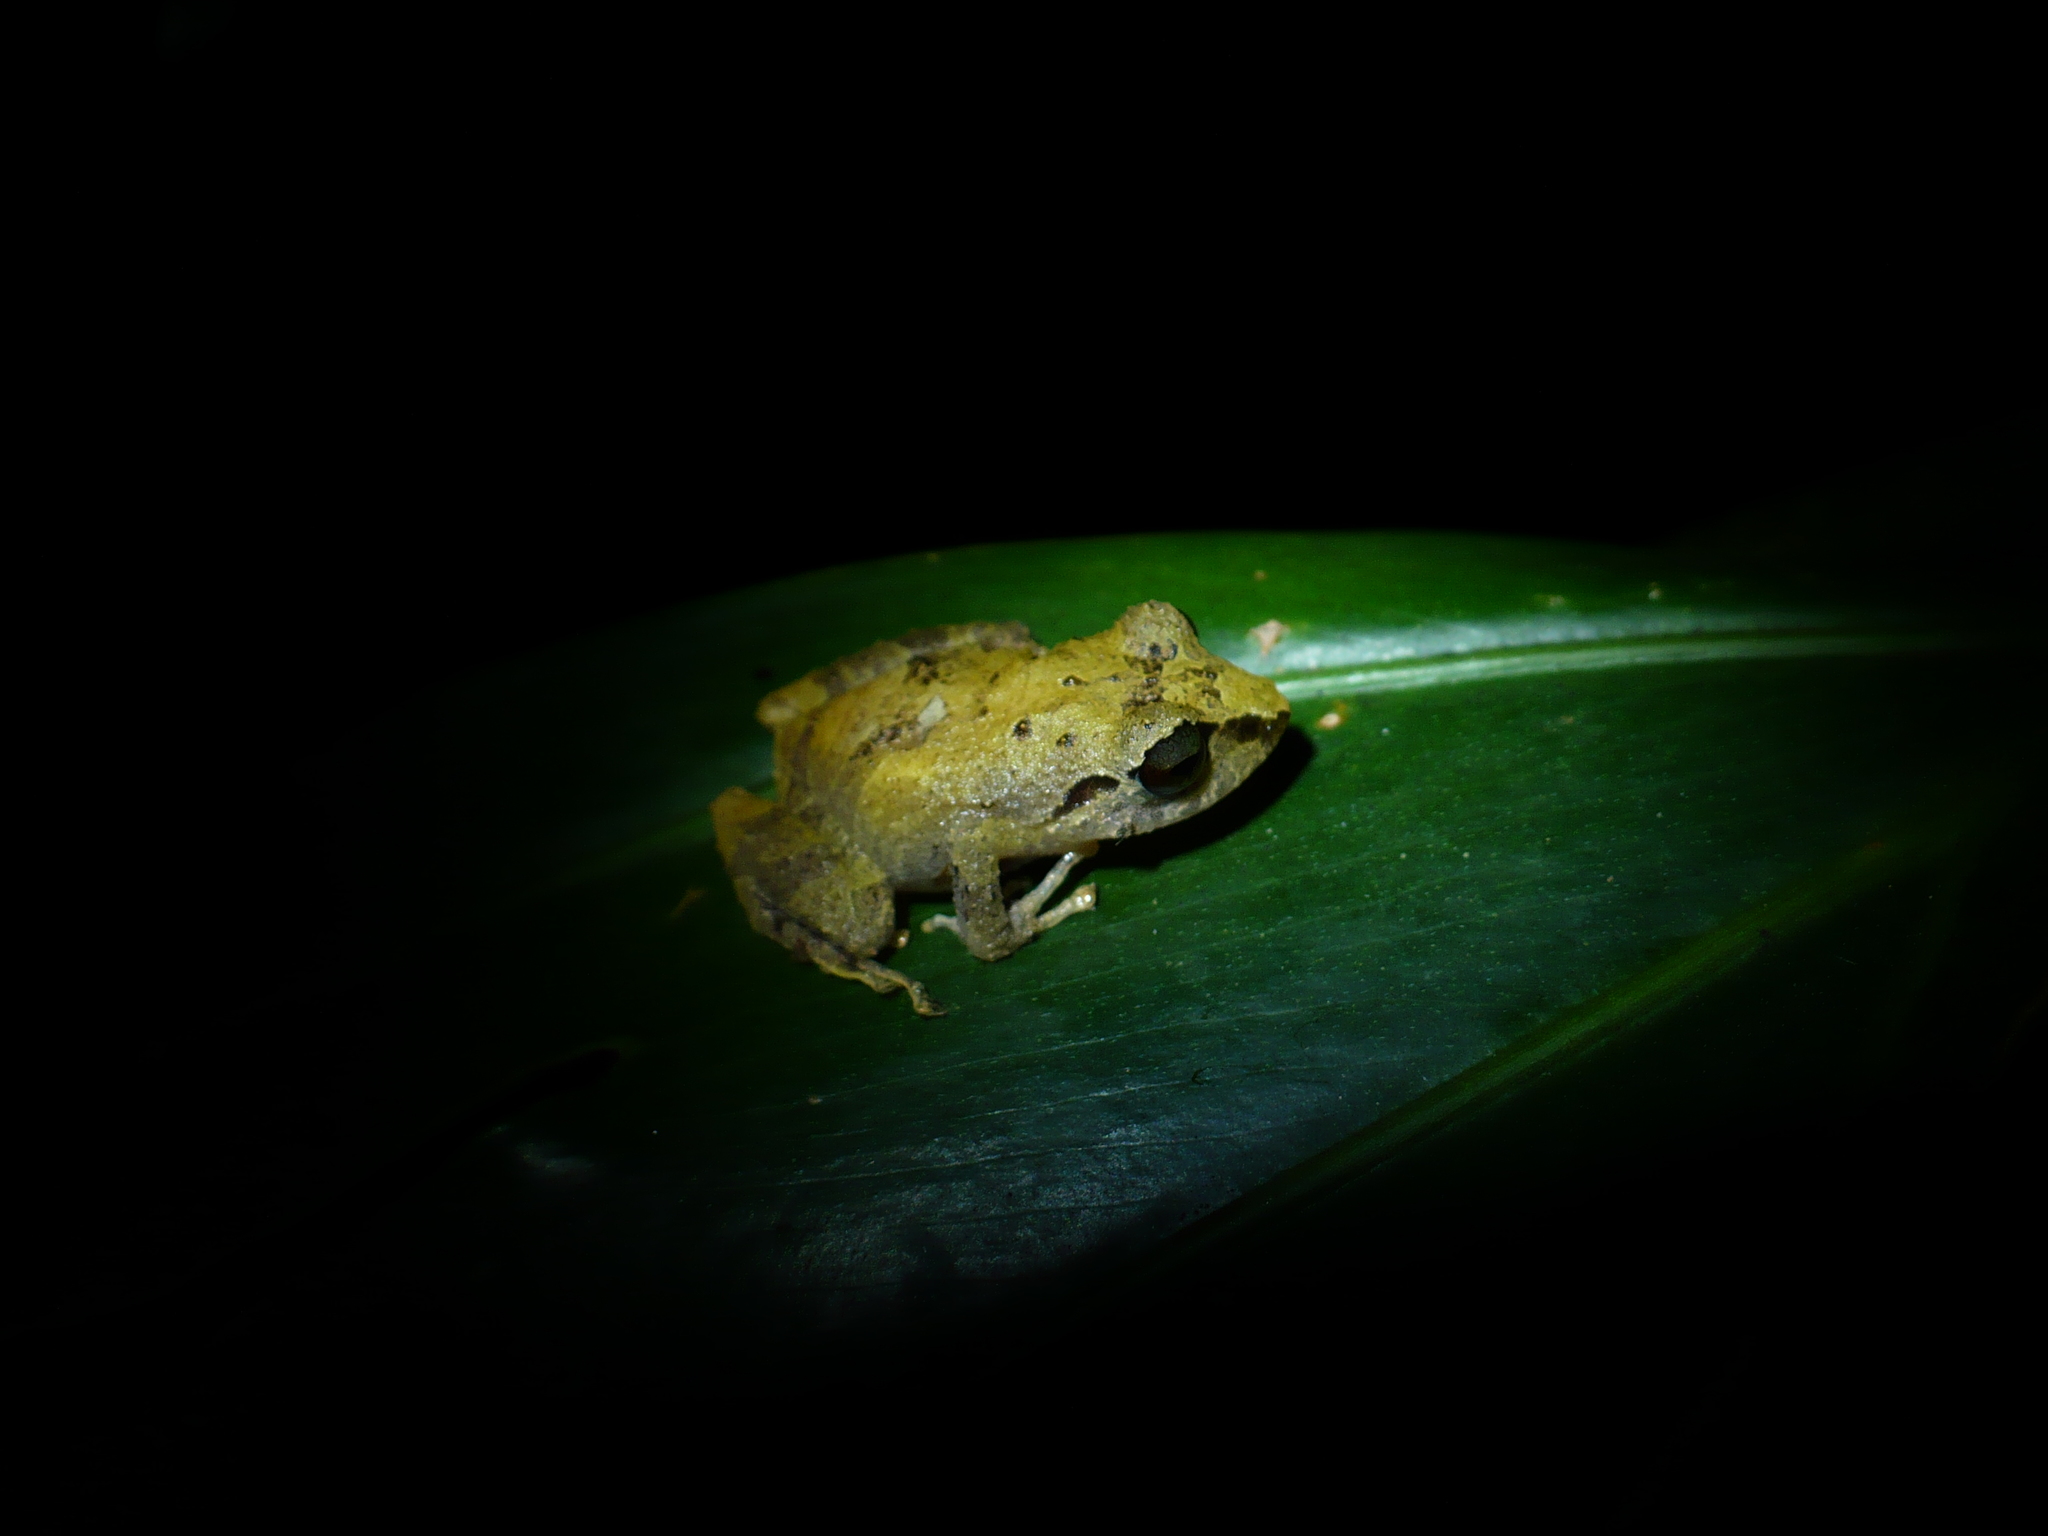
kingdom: Animalia
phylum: Chordata
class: Amphibia
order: Anura
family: Craugastoridae
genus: Pristimantis
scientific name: Pristimantis ridens
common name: Rio san juan robber frog
